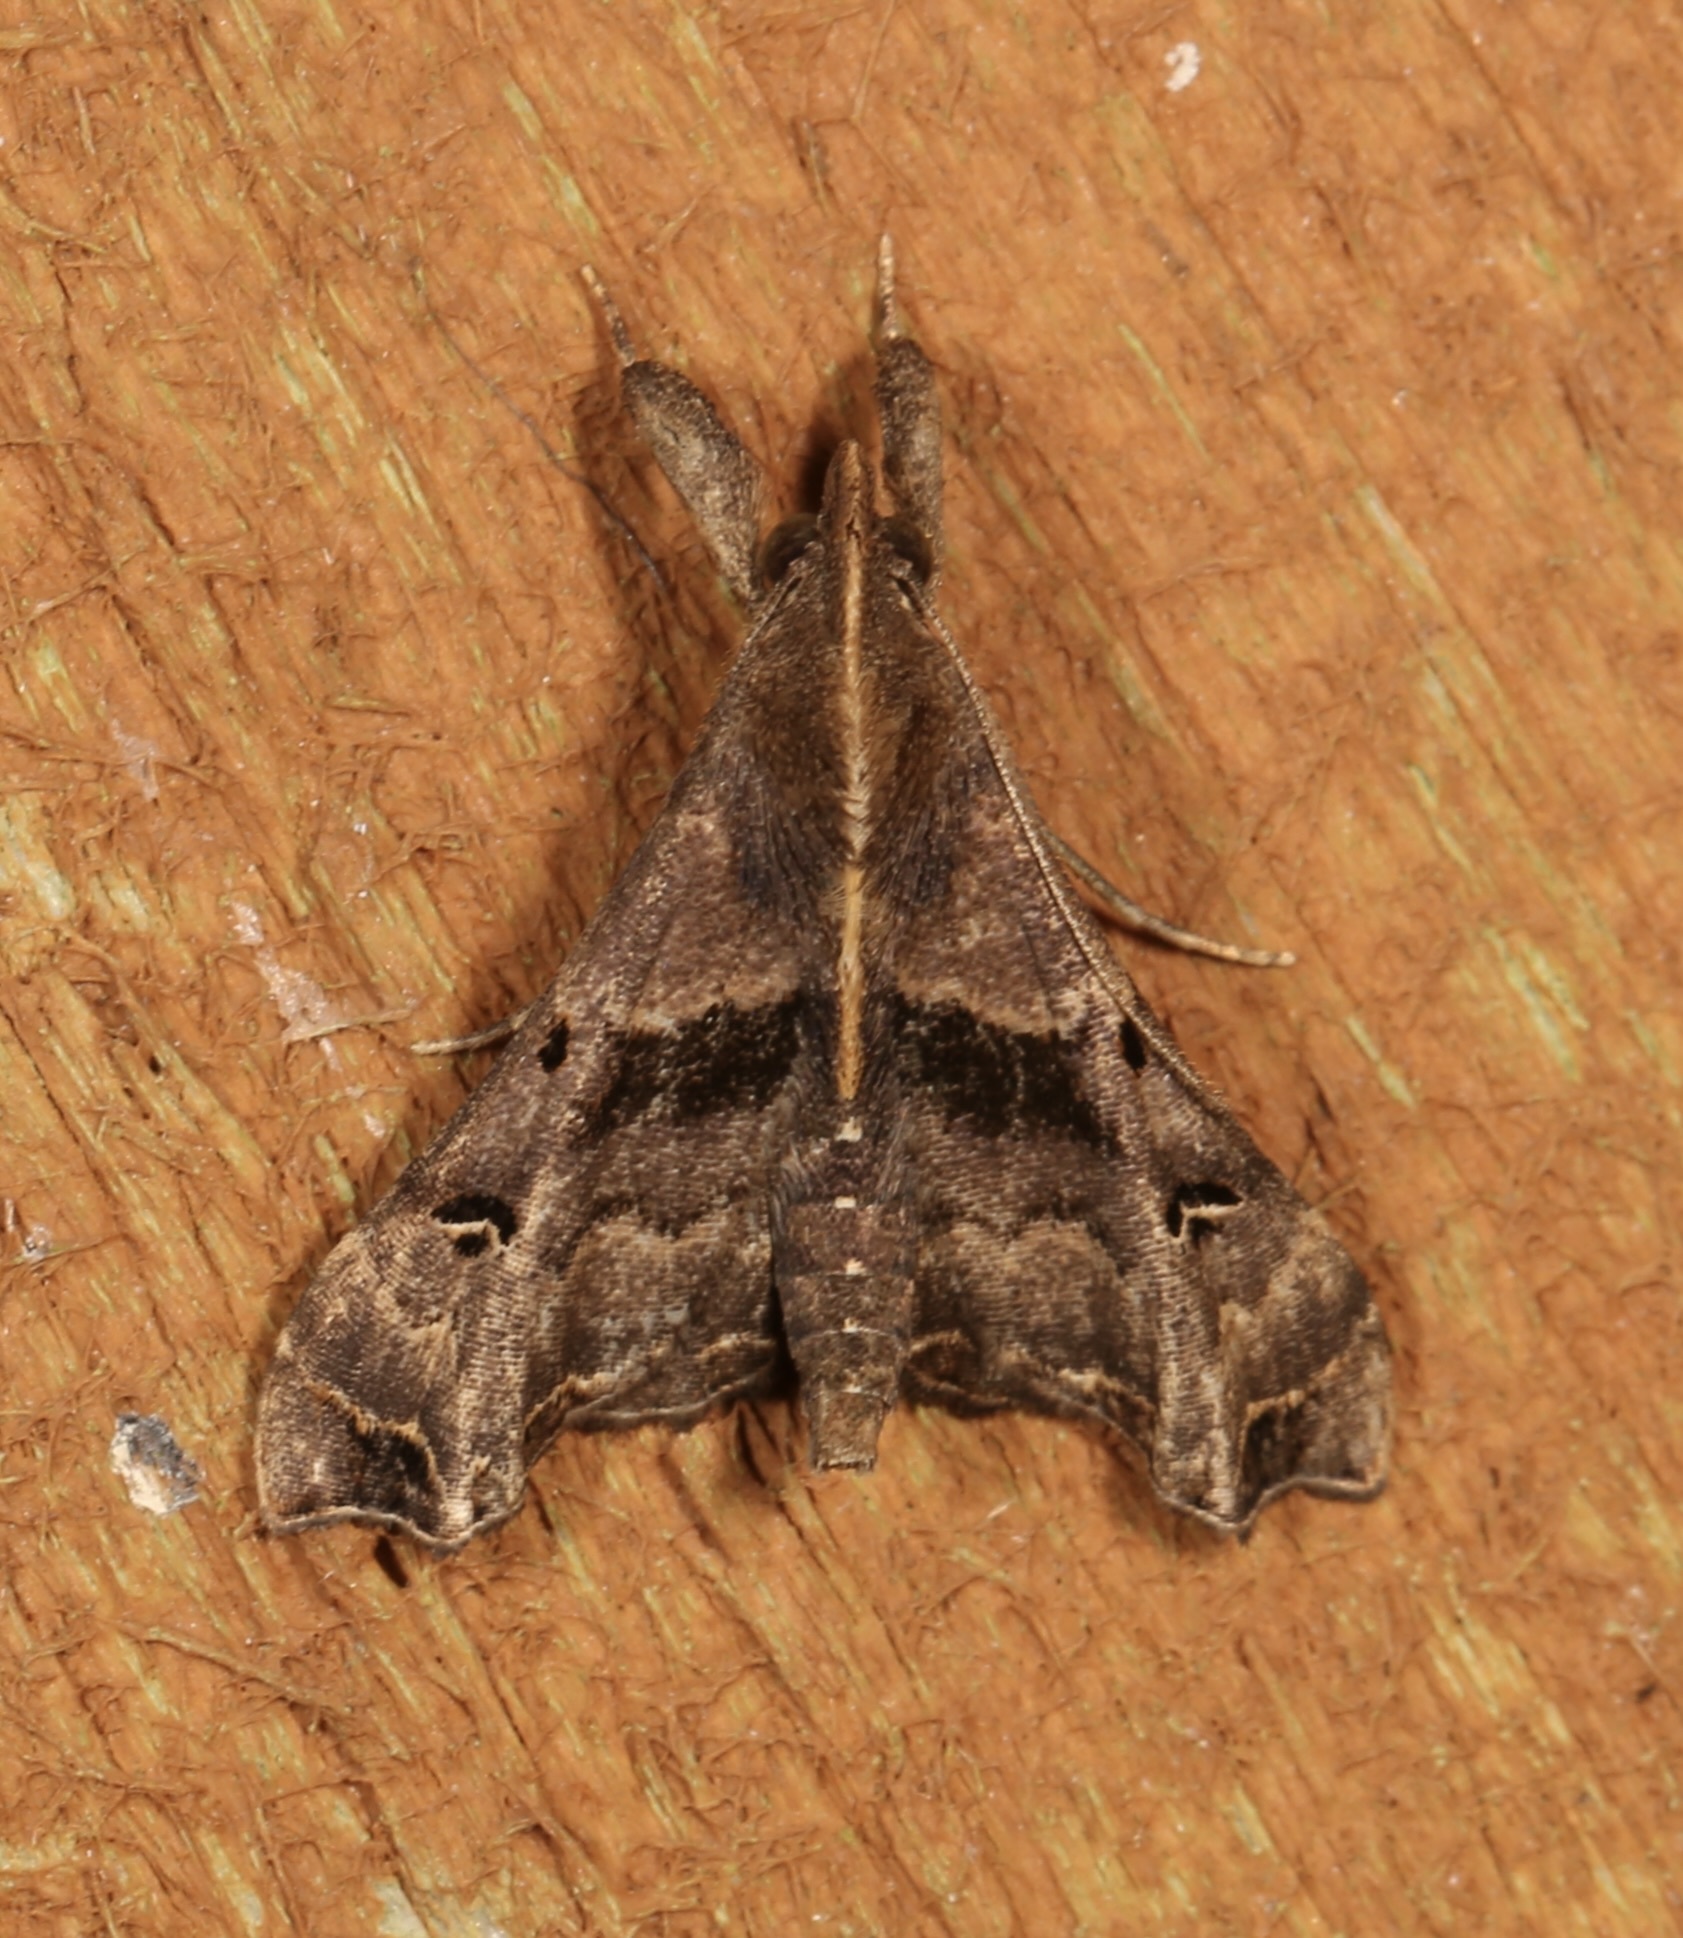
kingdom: Animalia
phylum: Arthropoda
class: Insecta
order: Lepidoptera
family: Erebidae
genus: Palthis
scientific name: Palthis asopialis
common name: Faint-spotted palthis moth
